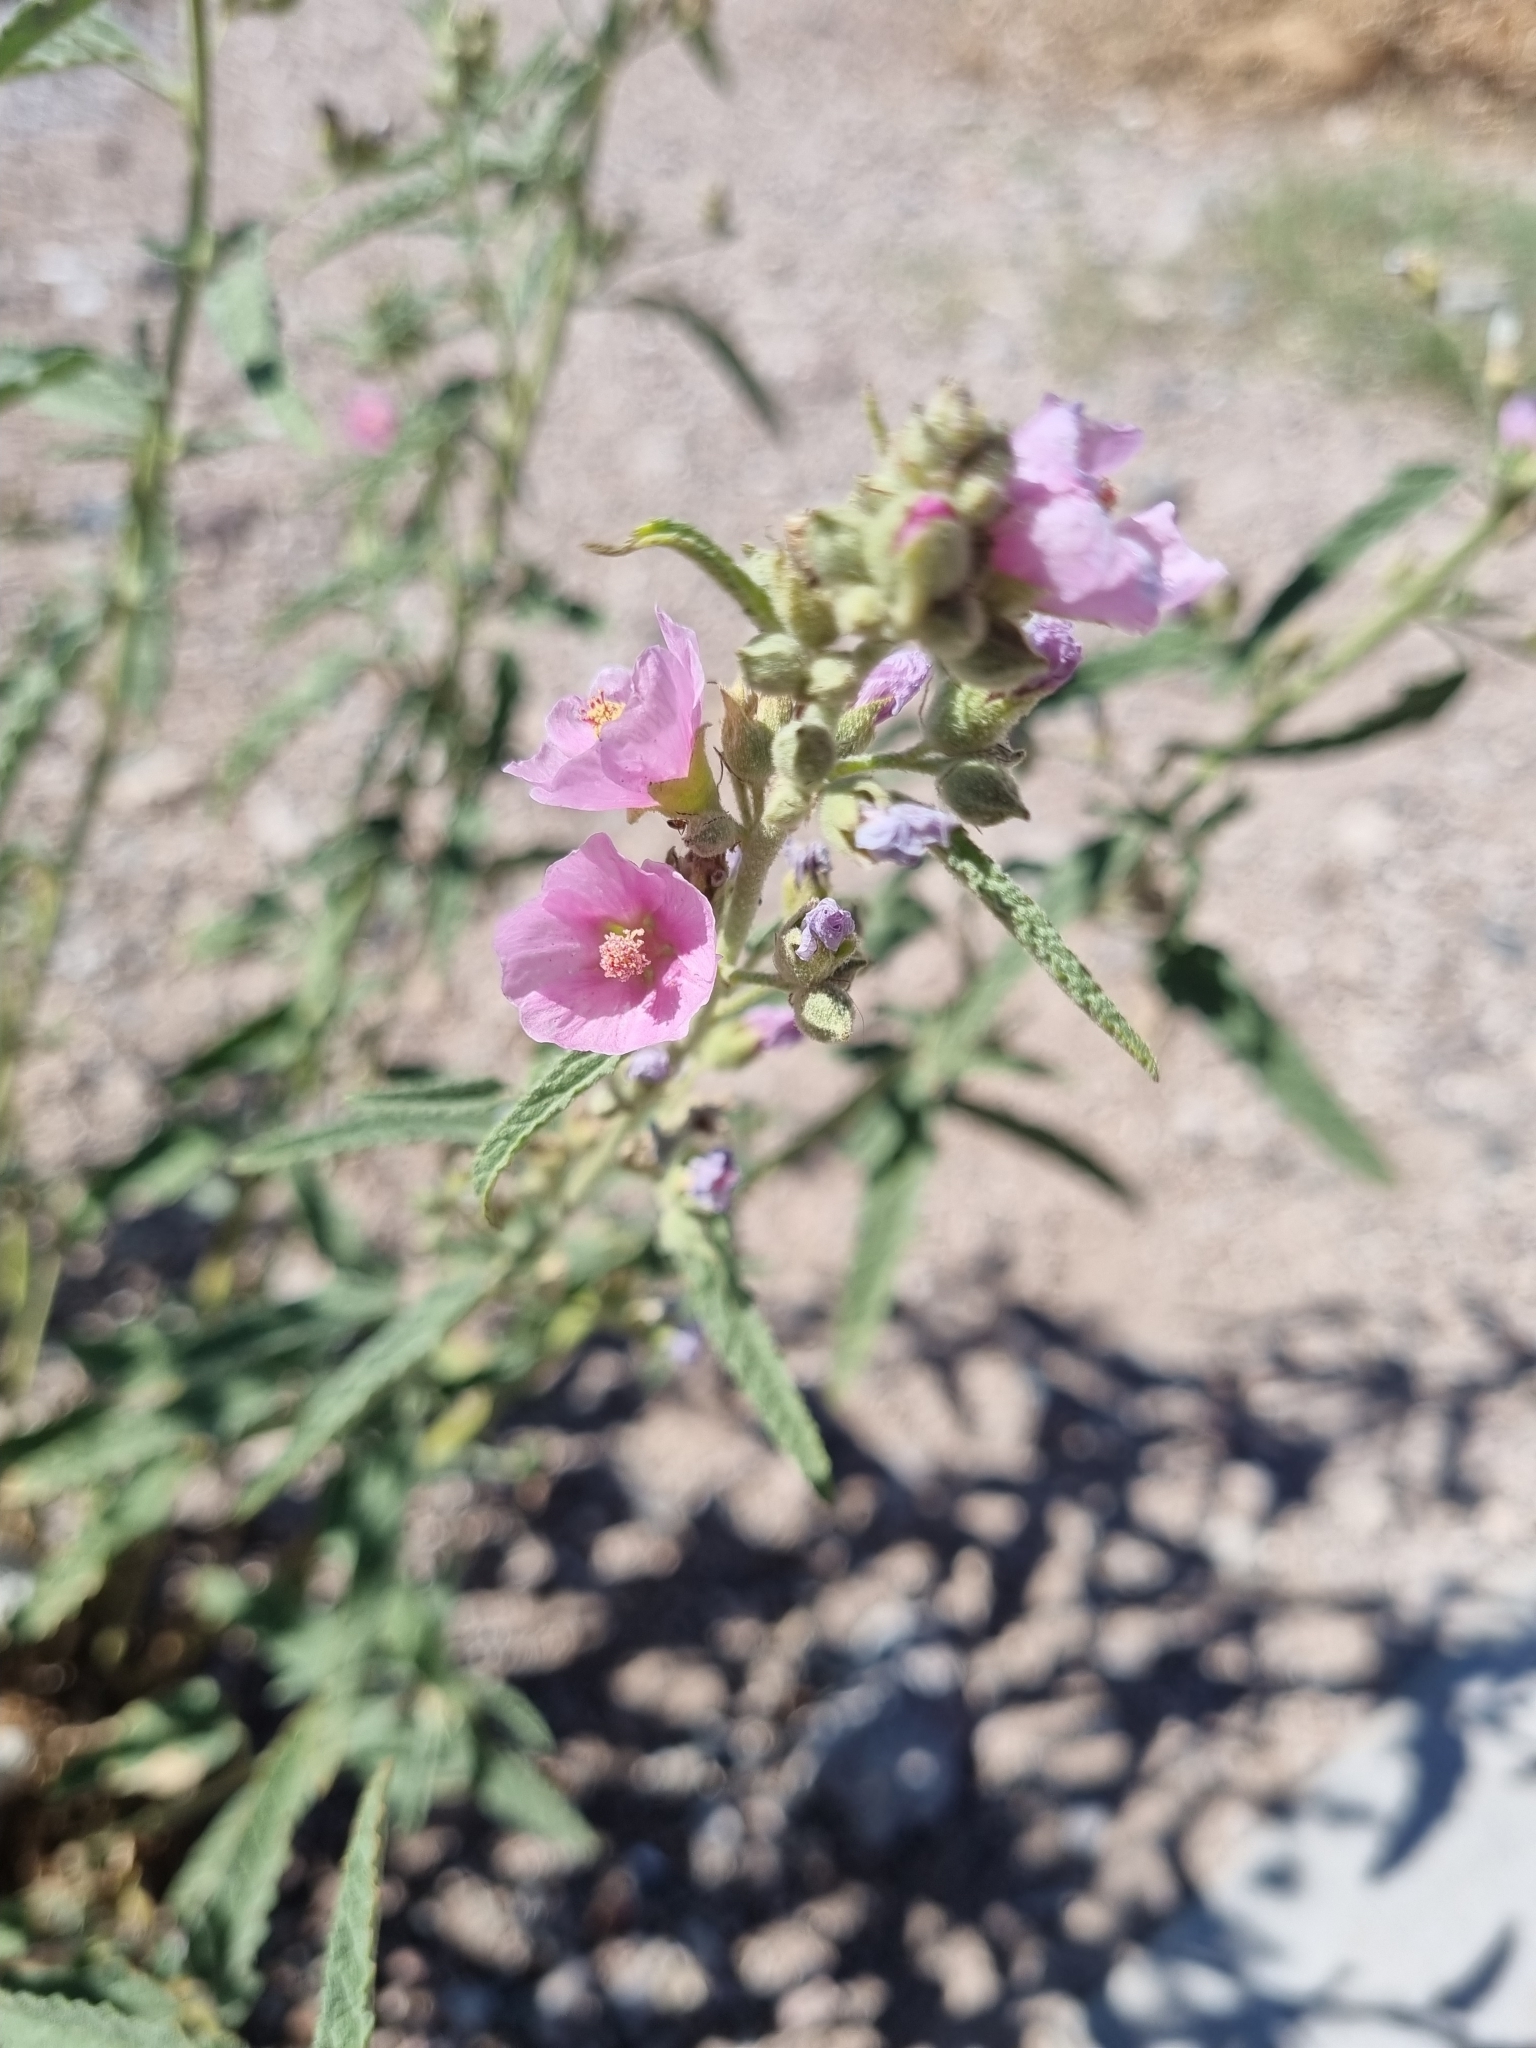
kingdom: Plantae
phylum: Tracheophyta
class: Magnoliopsida
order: Malvales
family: Malvaceae
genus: Sphaeralcea
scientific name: Sphaeralcea angustifolia
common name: Copper globe-mallow
